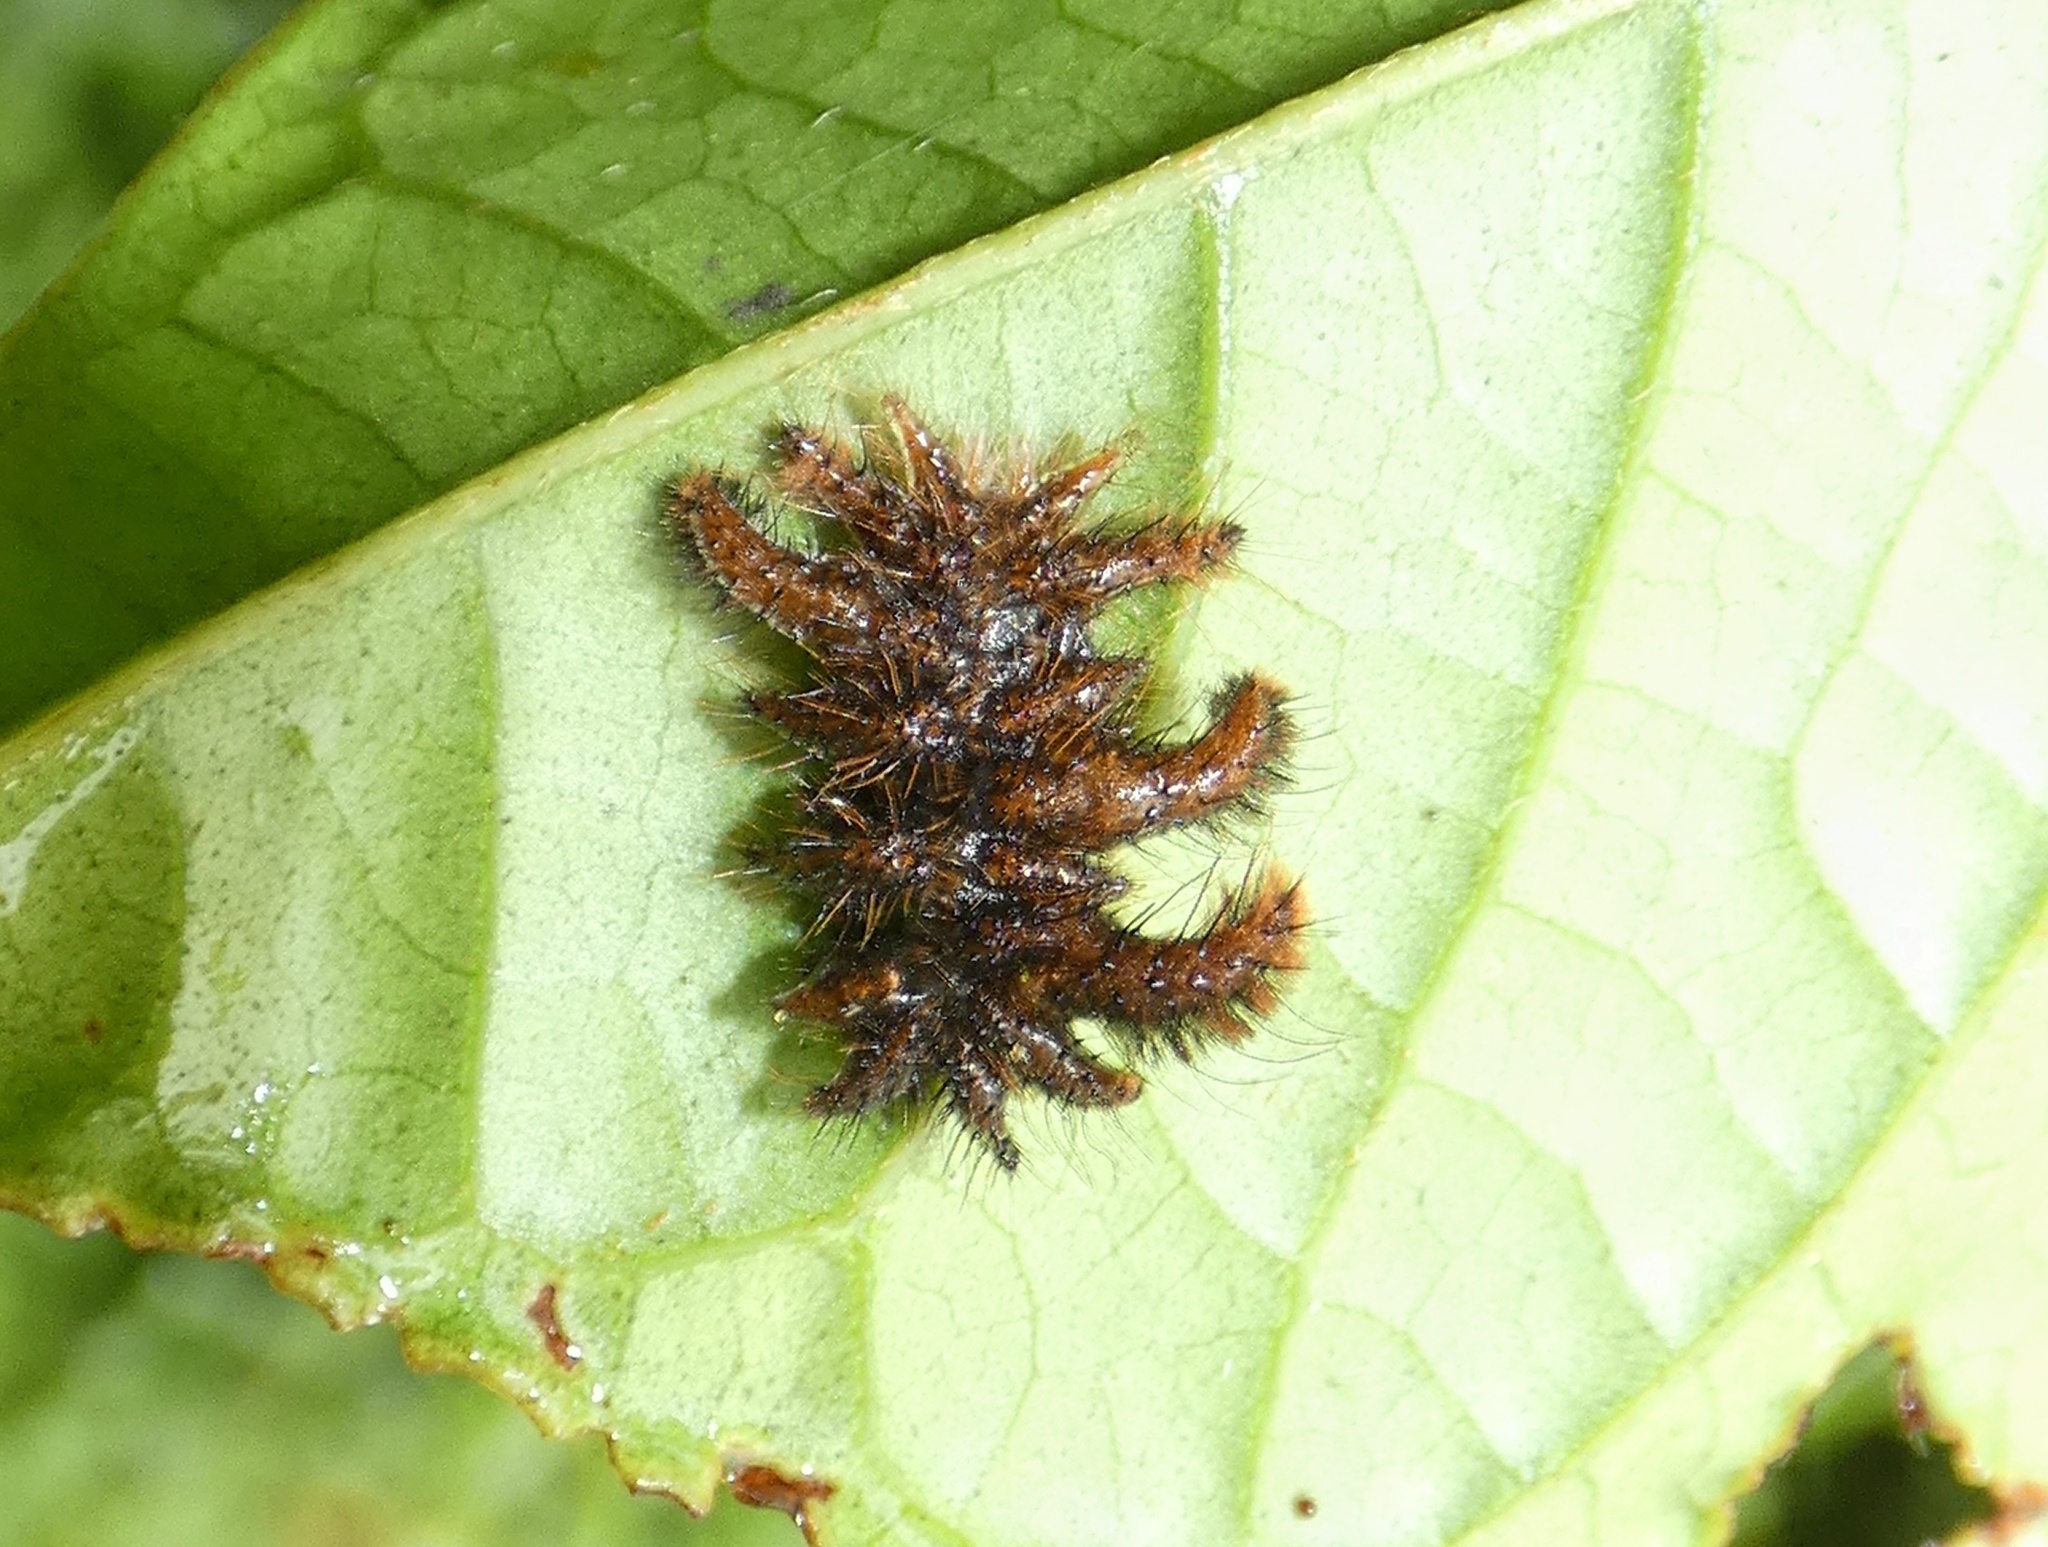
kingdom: Animalia
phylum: Arthropoda
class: Insecta
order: Lepidoptera
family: Limacodidae
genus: Phobetron
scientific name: Phobetron hipparchia
